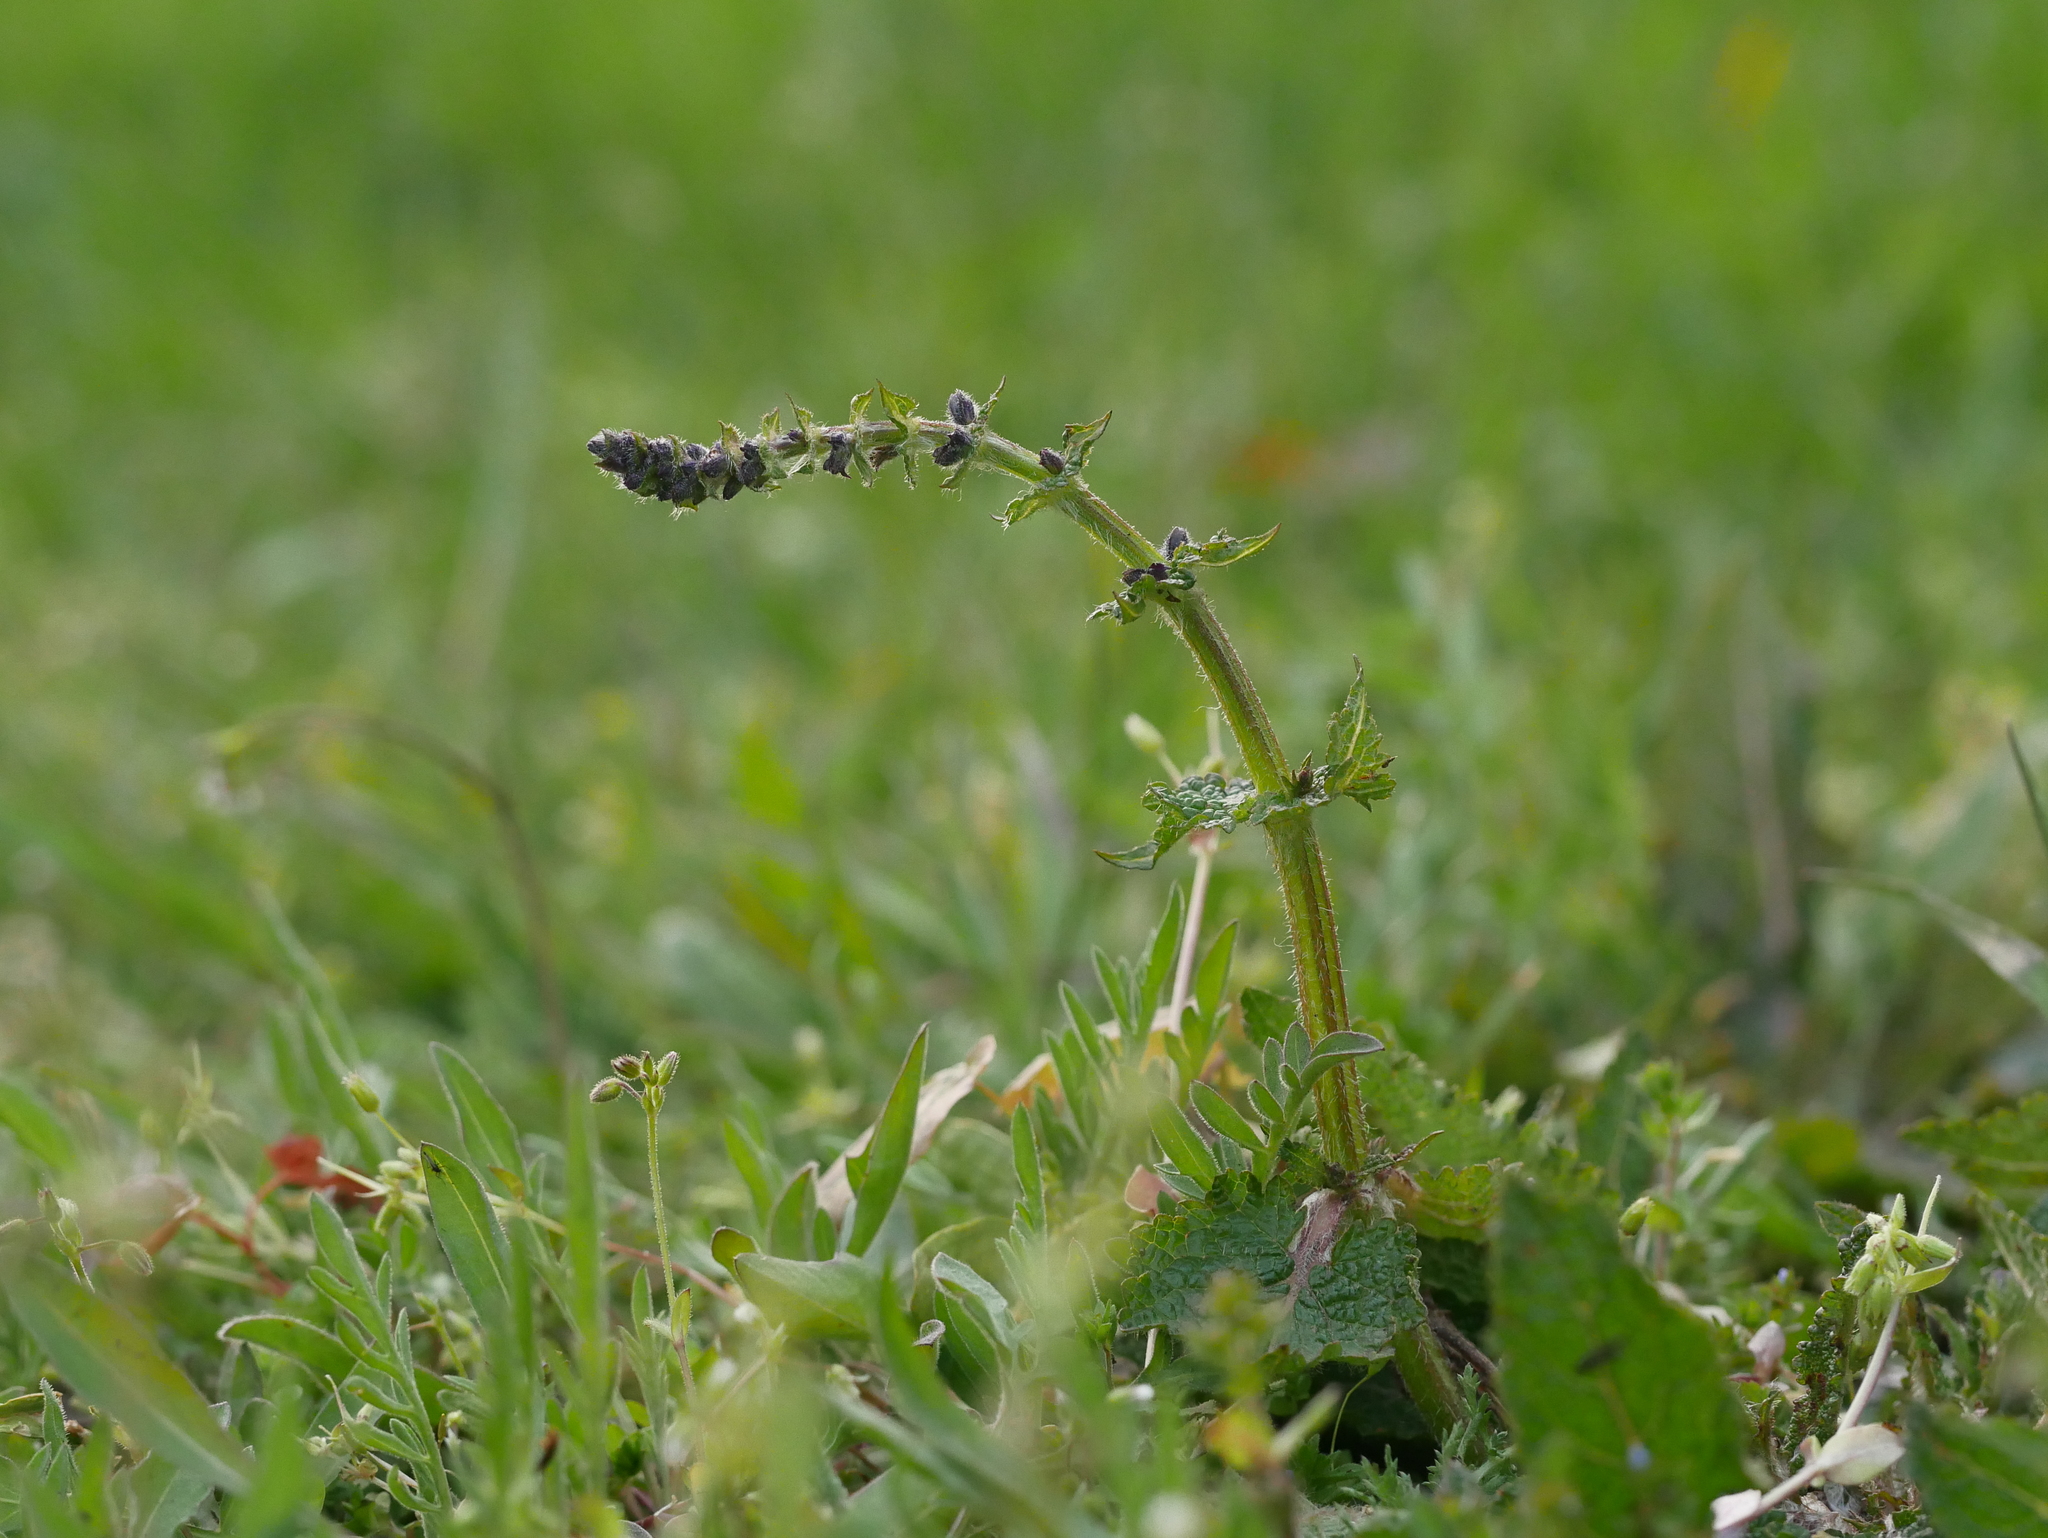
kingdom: Plantae
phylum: Tracheophyta
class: Magnoliopsida
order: Lamiales
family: Lamiaceae
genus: Salvia
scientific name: Salvia pratensis
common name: Meadow sage
